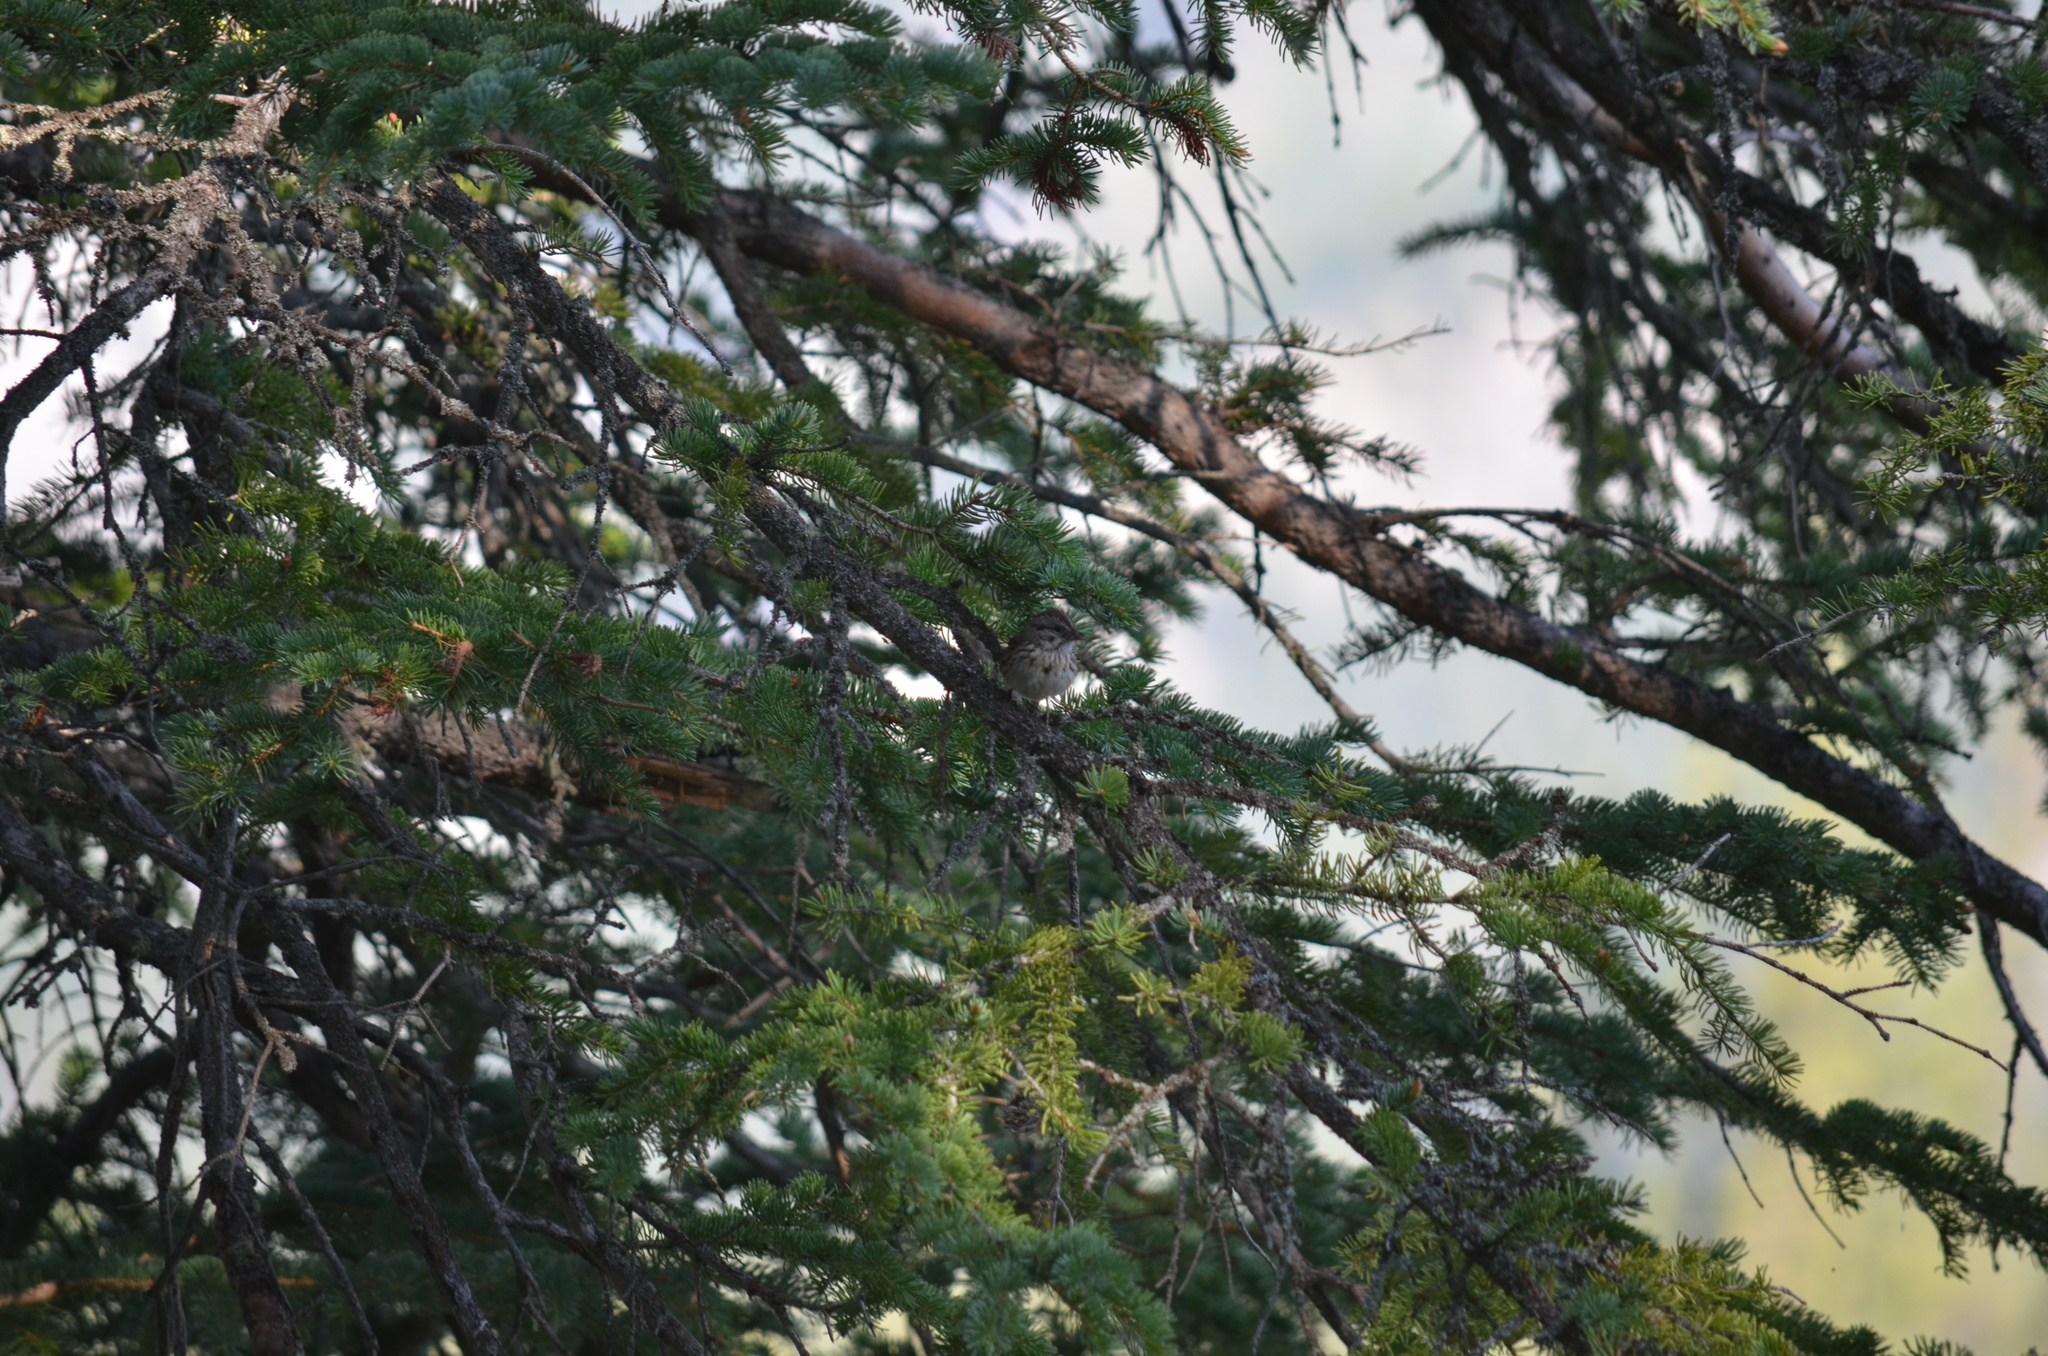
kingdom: Animalia
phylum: Chordata
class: Aves
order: Passeriformes
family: Passerellidae
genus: Melospiza
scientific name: Melospiza lincolnii
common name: Lincoln's sparrow
